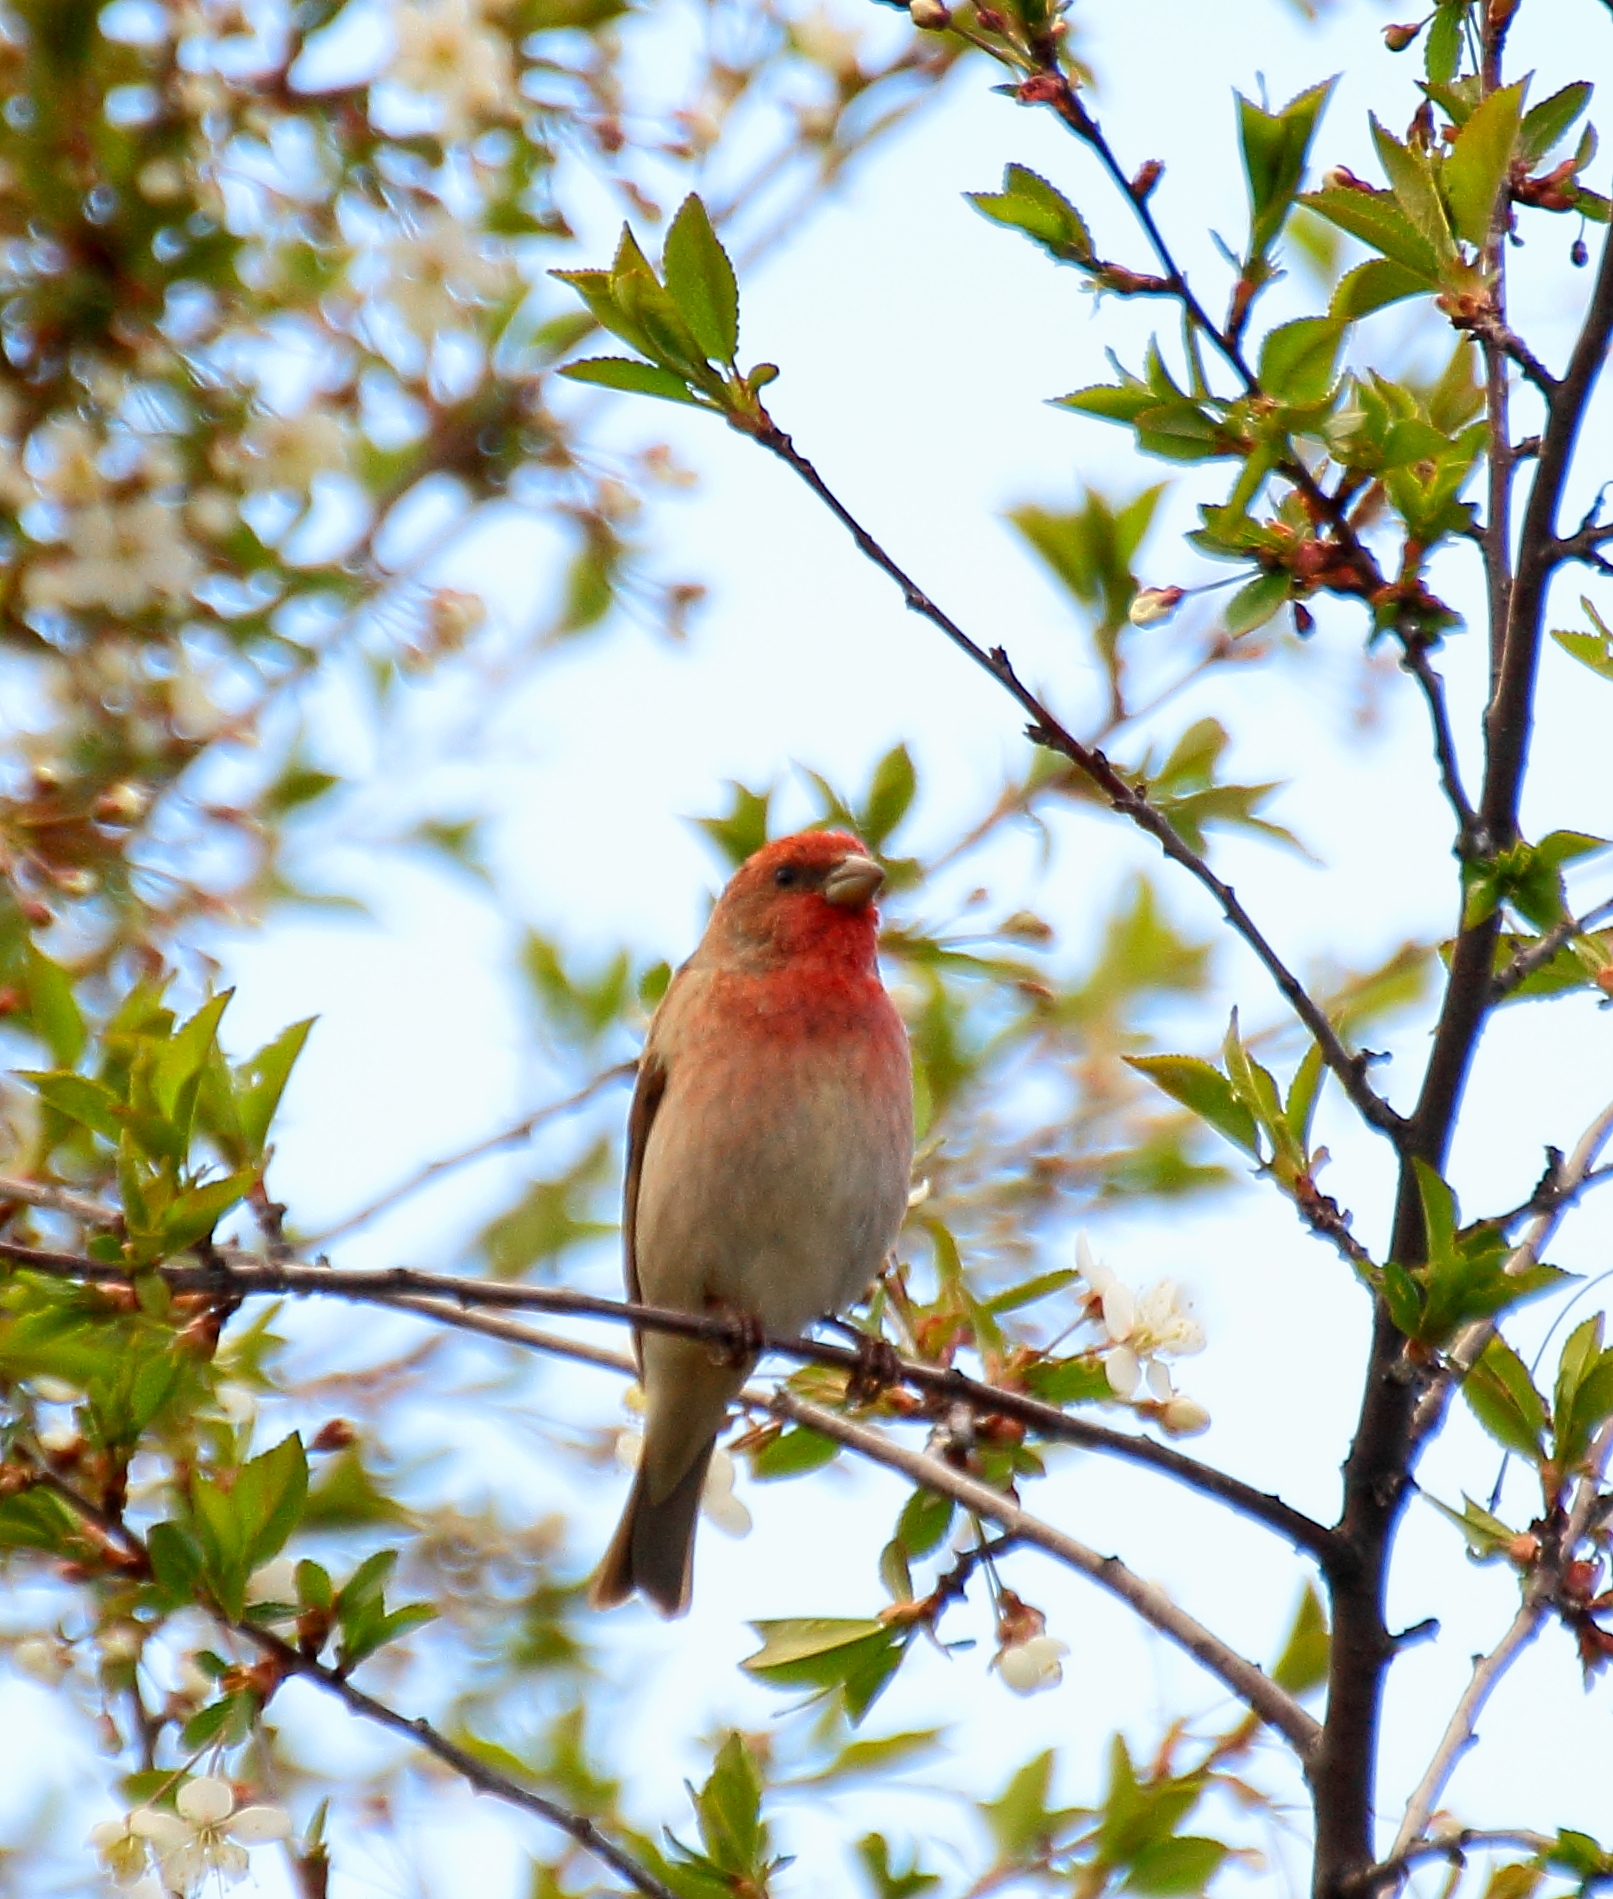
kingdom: Animalia
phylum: Chordata
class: Aves
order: Passeriformes
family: Fringillidae
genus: Carpodacus
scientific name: Carpodacus erythrinus
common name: Common rosefinch
